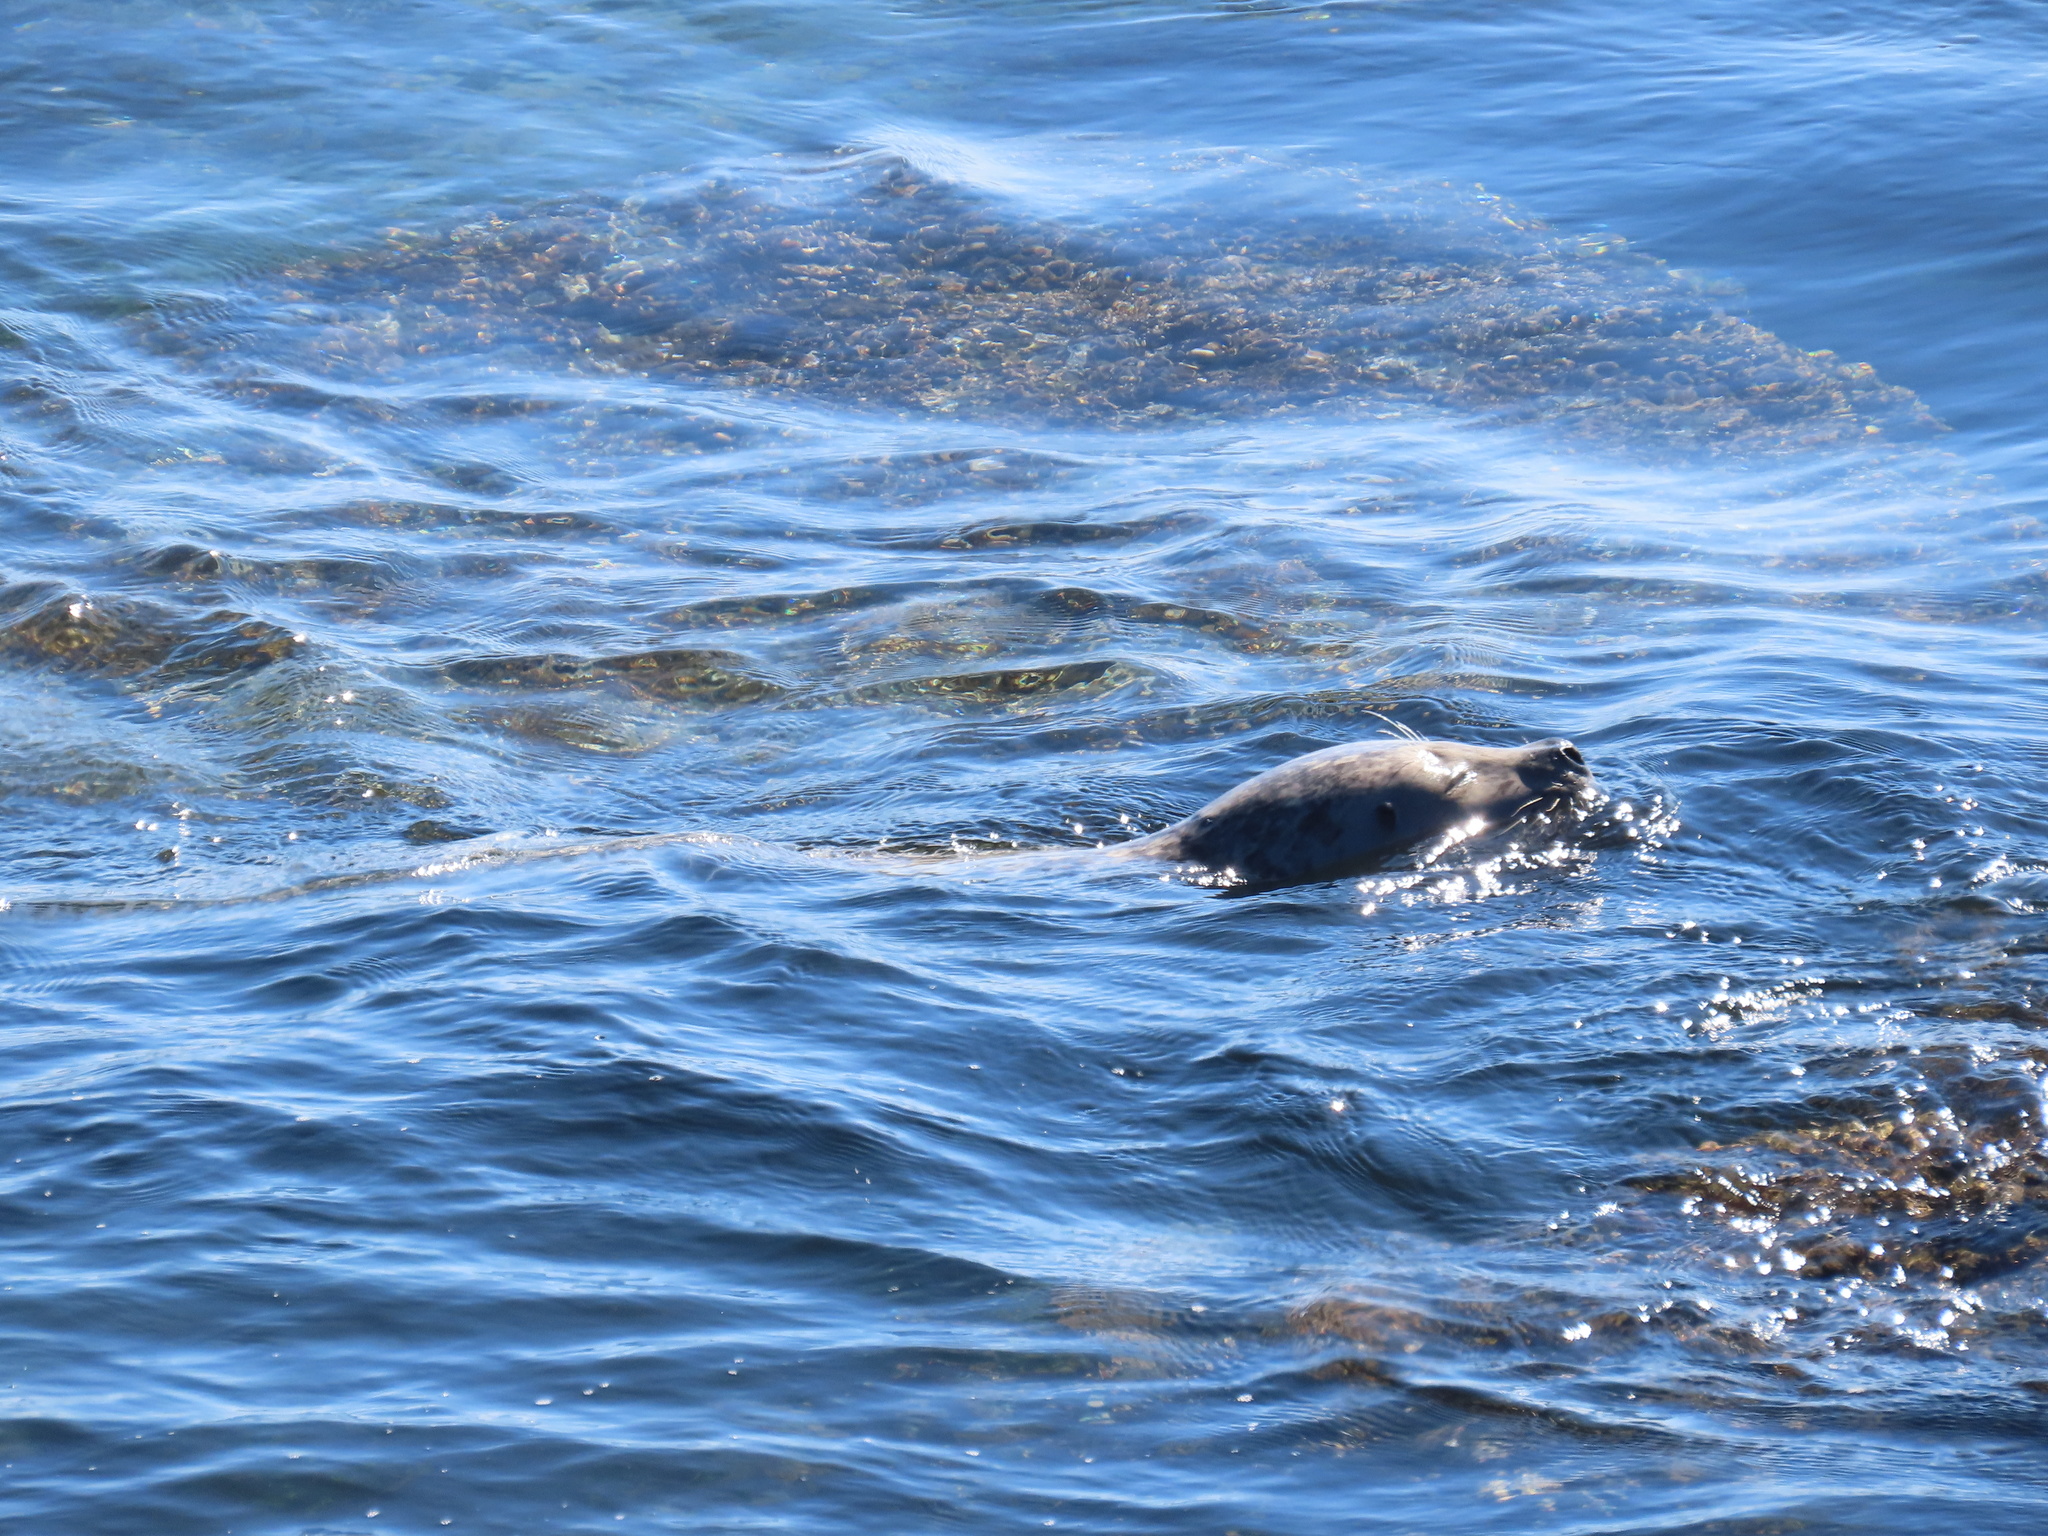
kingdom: Animalia
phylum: Chordata
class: Mammalia
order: Carnivora
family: Phocidae
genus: Phoca
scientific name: Phoca vitulina
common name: Harbor seal
